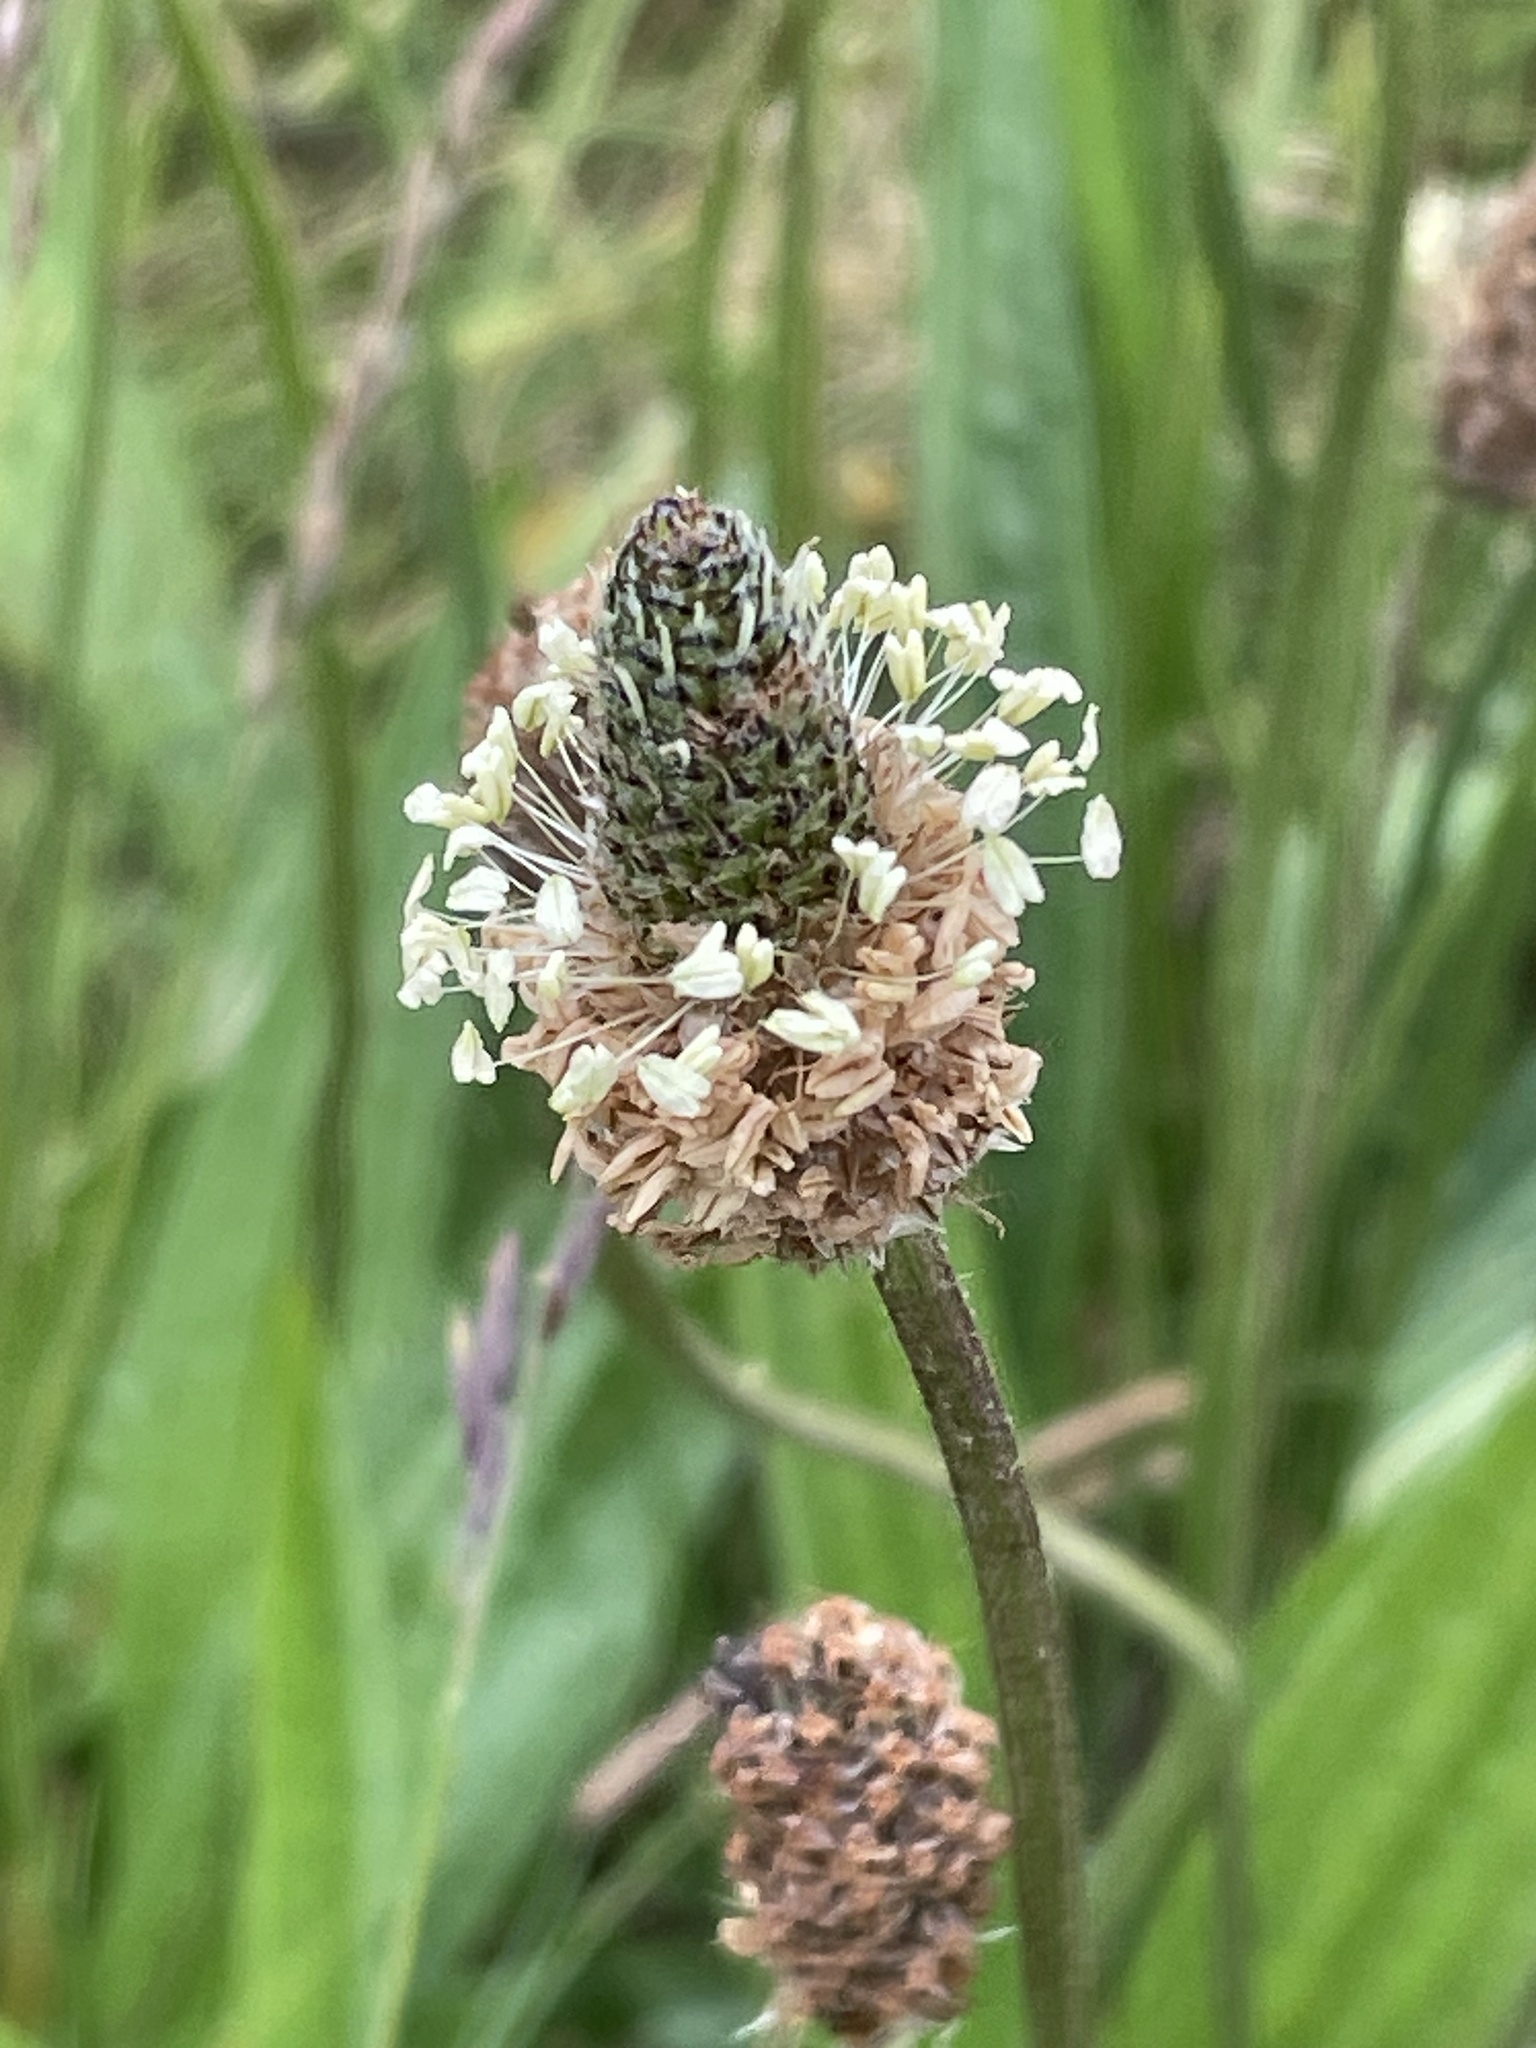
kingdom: Plantae
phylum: Tracheophyta
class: Magnoliopsida
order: Lamiales
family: Plantaginaceae
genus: Plantago
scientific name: Plantago lanceolata
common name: Ribwort plantain
